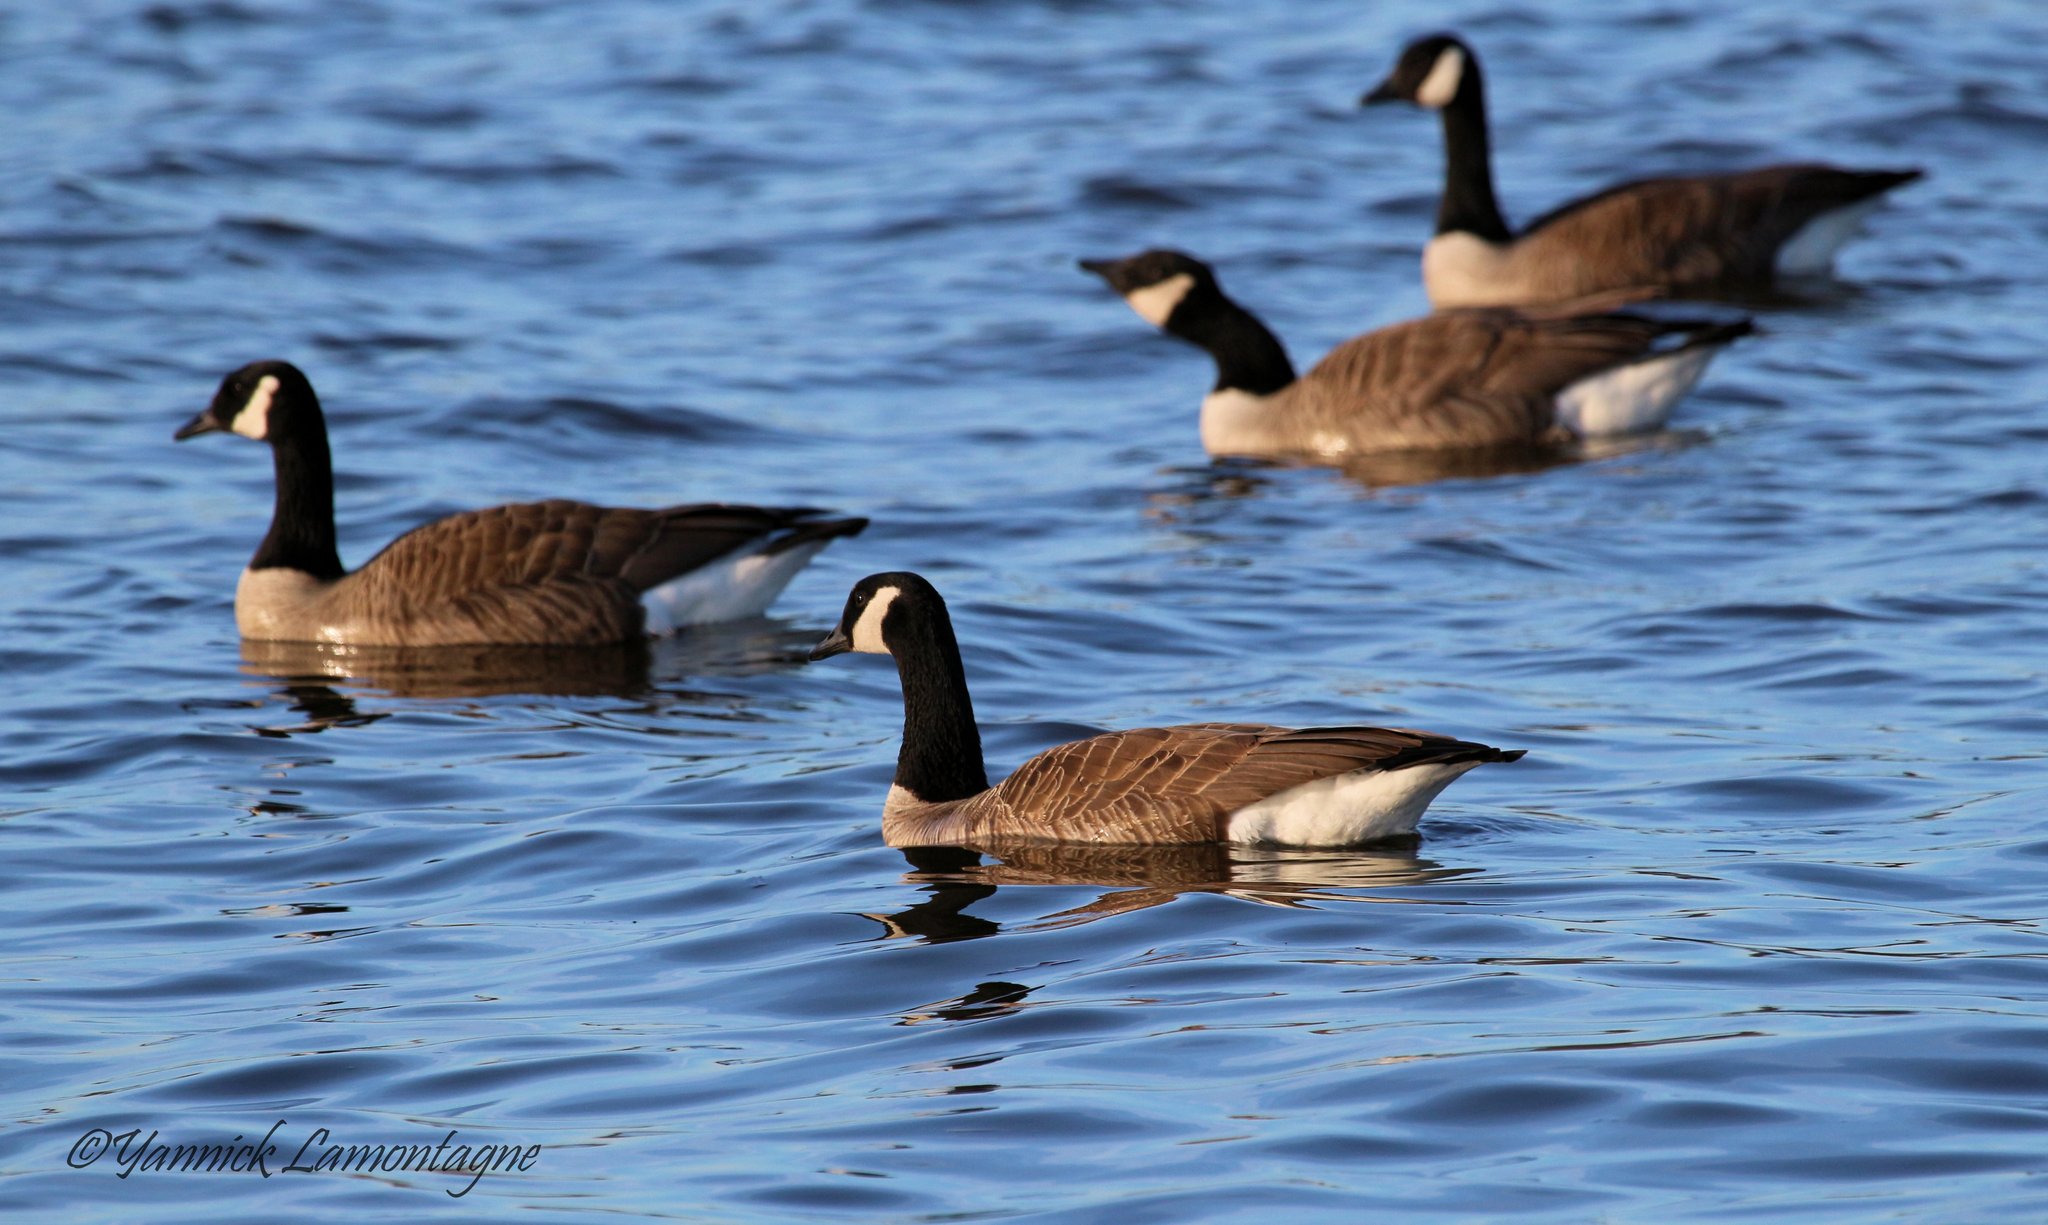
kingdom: Animalia
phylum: Chordata
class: Aves
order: Anseriformes
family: Anatidae
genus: Branta
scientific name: Branta canadensis
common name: Canada goose
